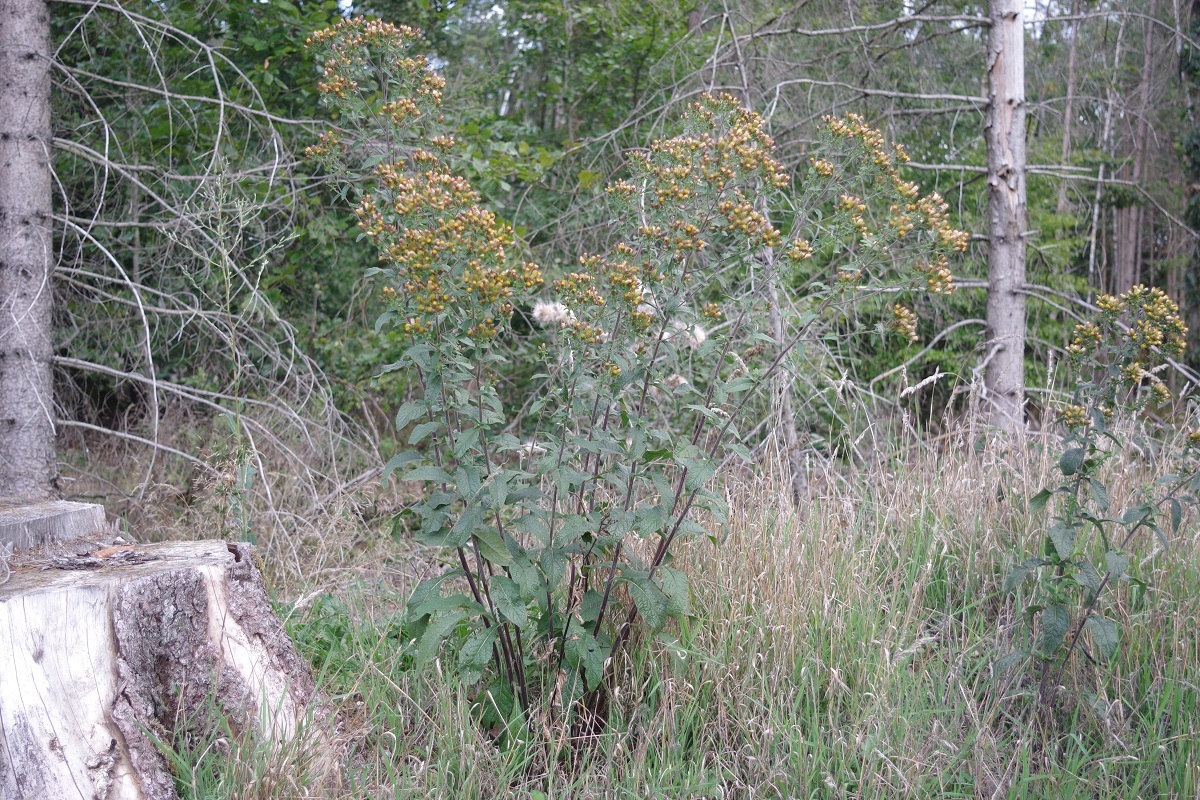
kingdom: Plantae
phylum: Tracheophyta
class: Magnoliopsida
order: Asterales
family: Asteraceae
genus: Pentanema
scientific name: Pentanema squarrosum
